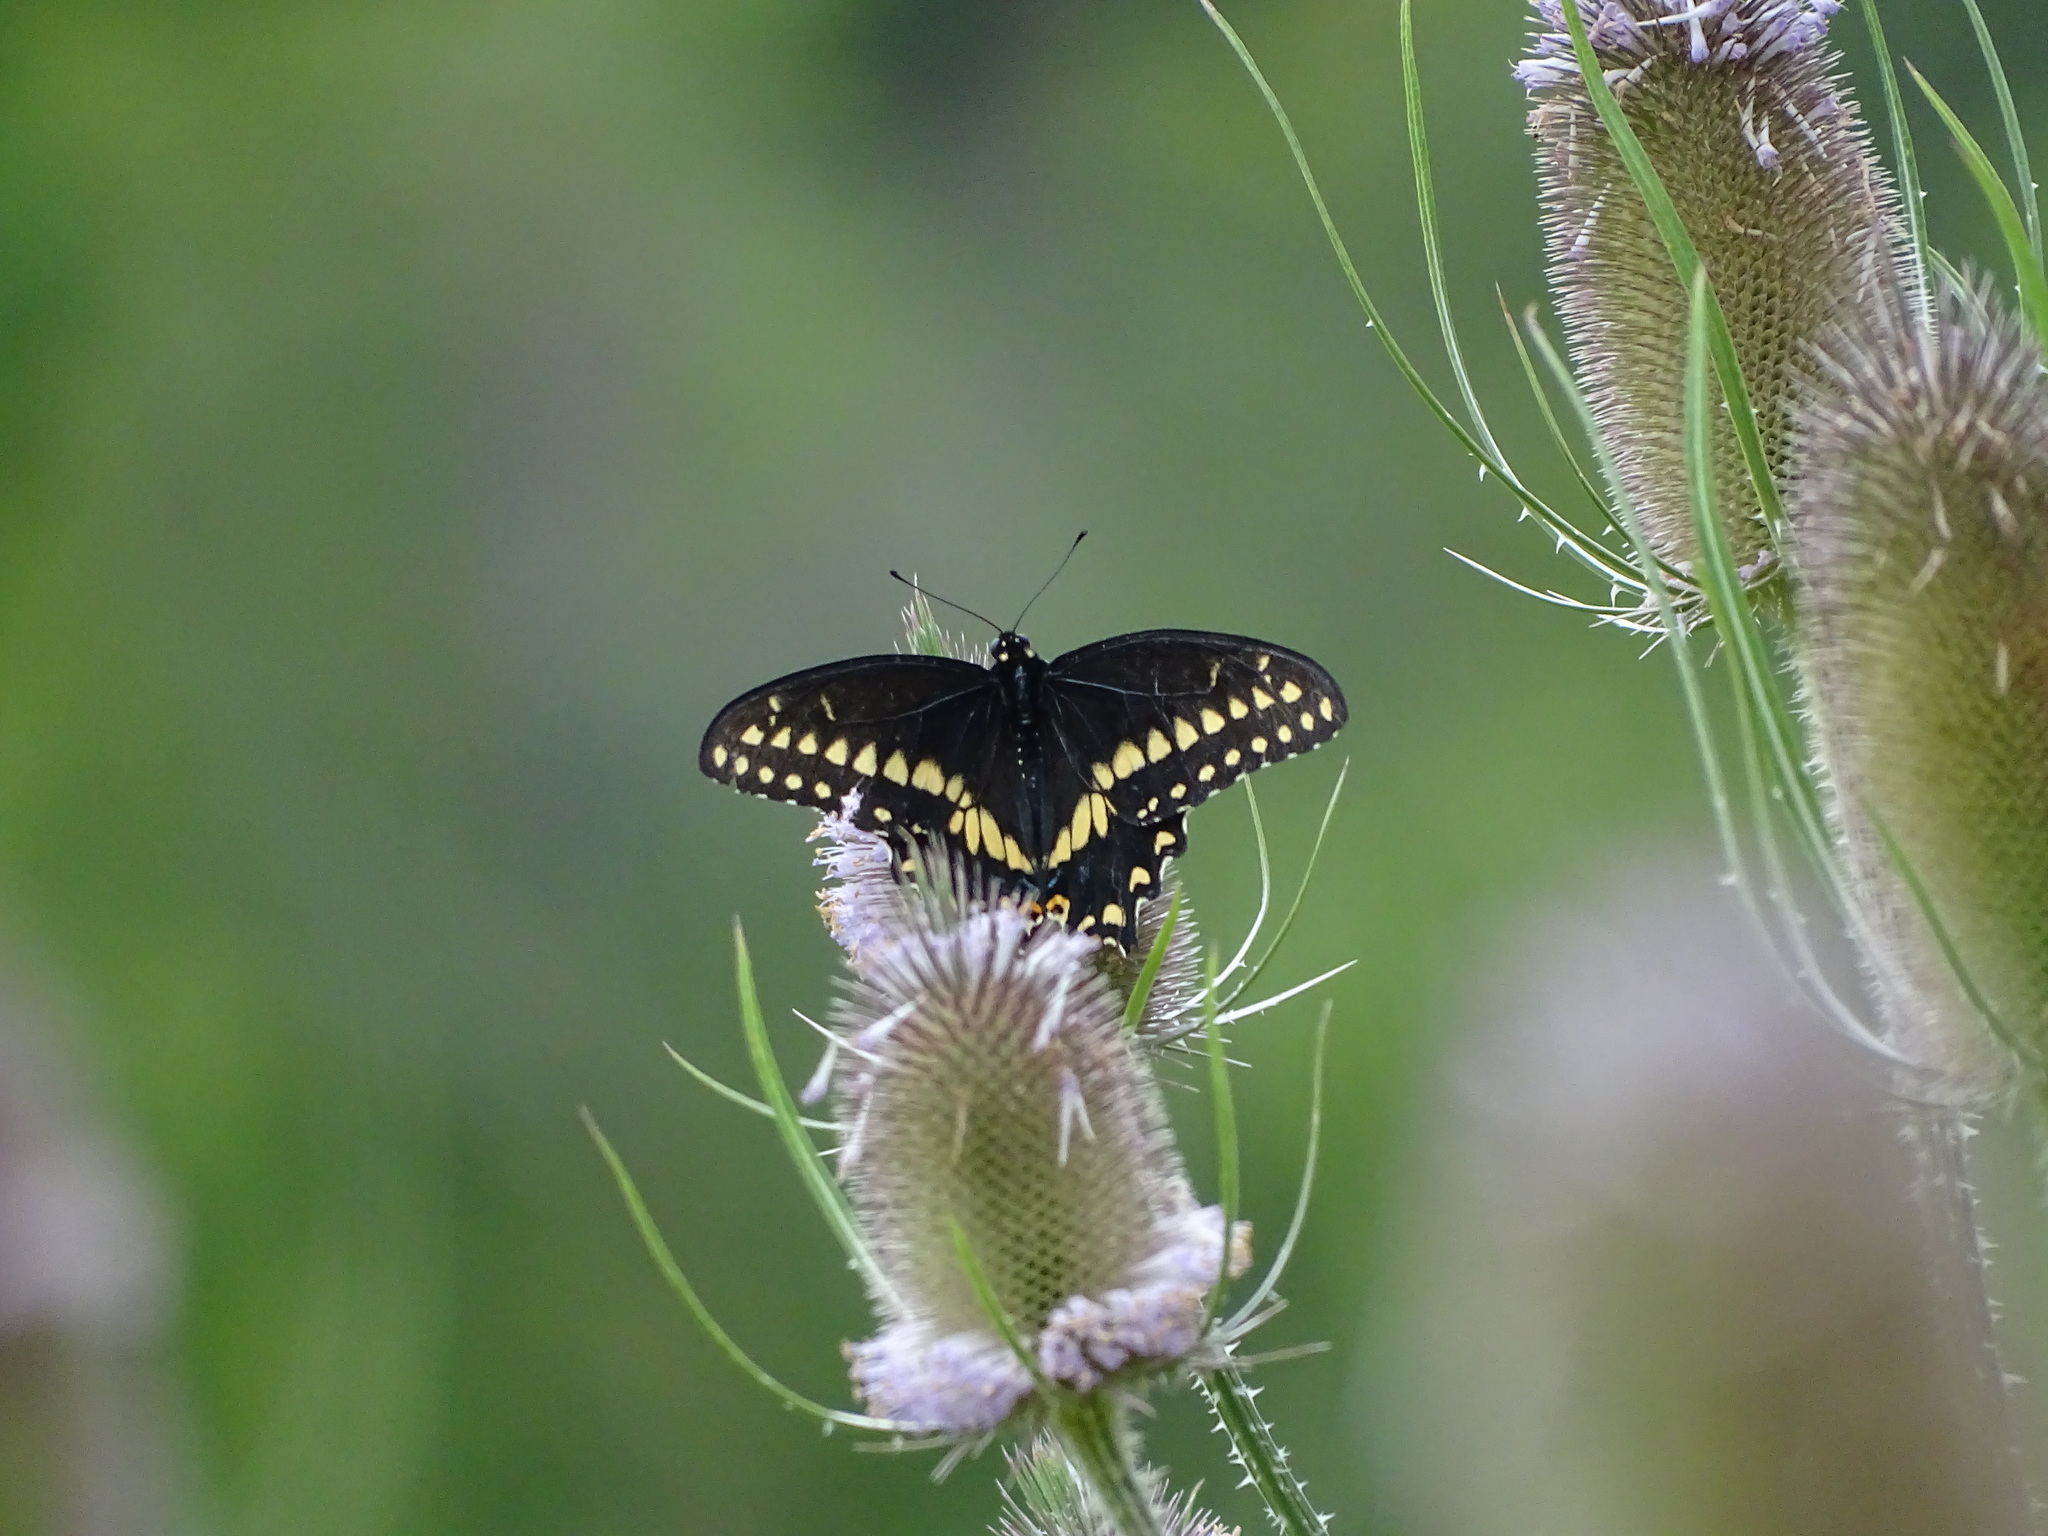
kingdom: Animalia
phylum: Arthropoda
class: Insecta
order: Lepidoptera
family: Papilionidae
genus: Papilio
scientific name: Papilio polyxenes
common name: Black swallowtail
